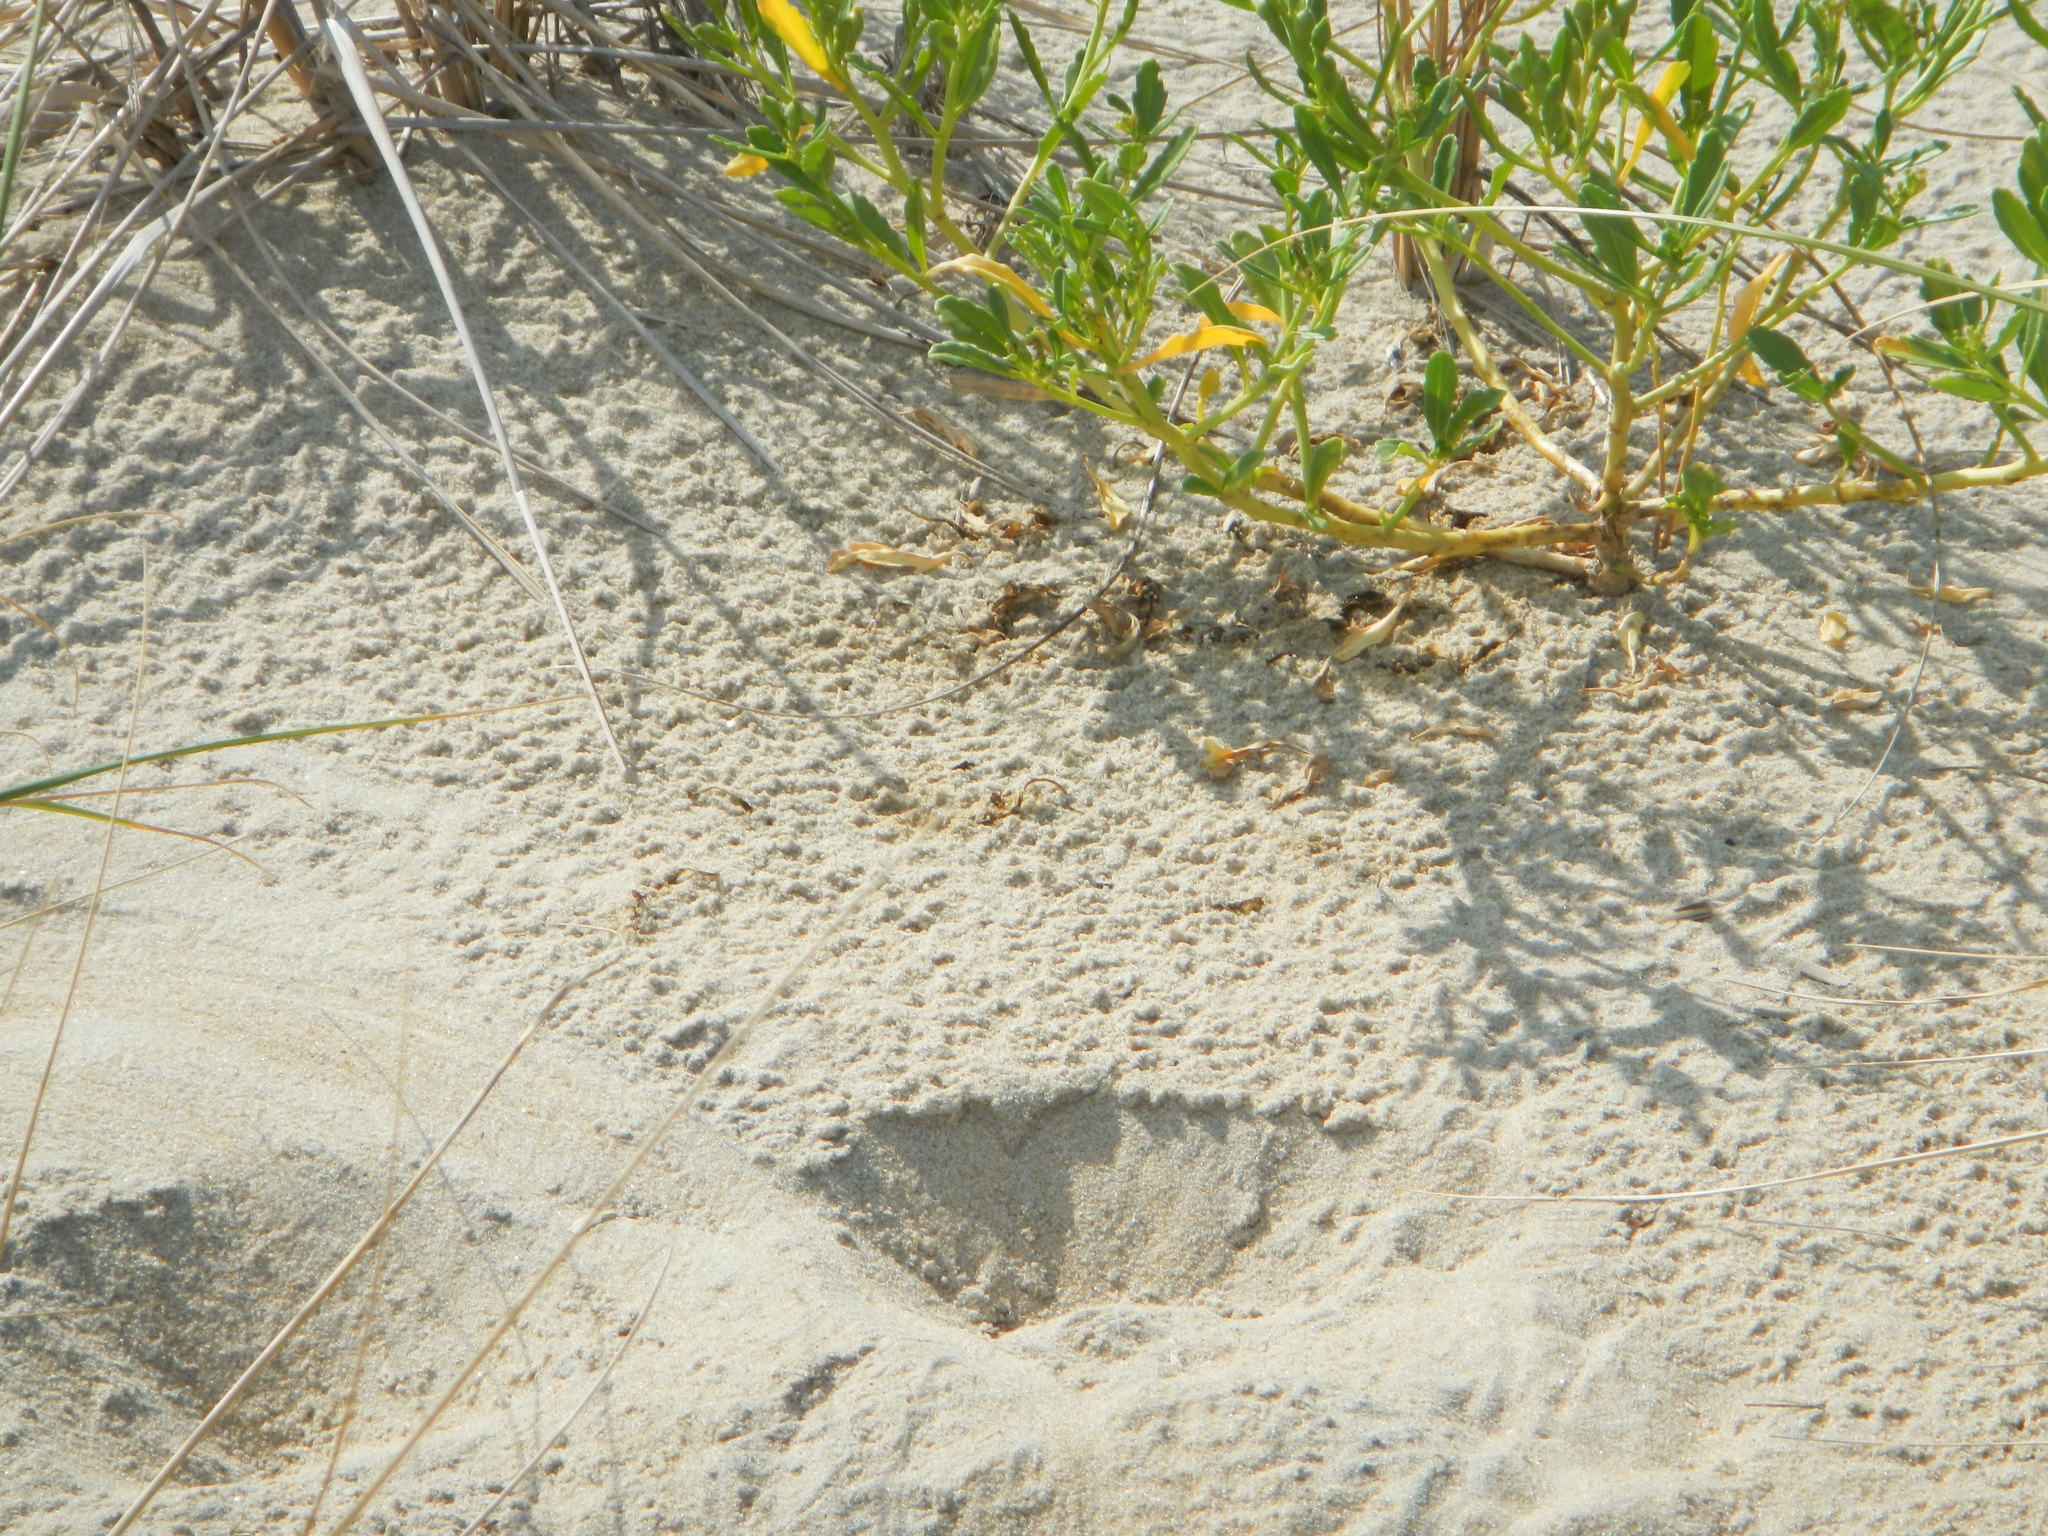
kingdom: Plantae
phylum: Tracheophyta
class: Magnoliopsida
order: Brassicales
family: Brassicaceae
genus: Cakile
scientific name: Cakile edentula
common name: American sea rocket
